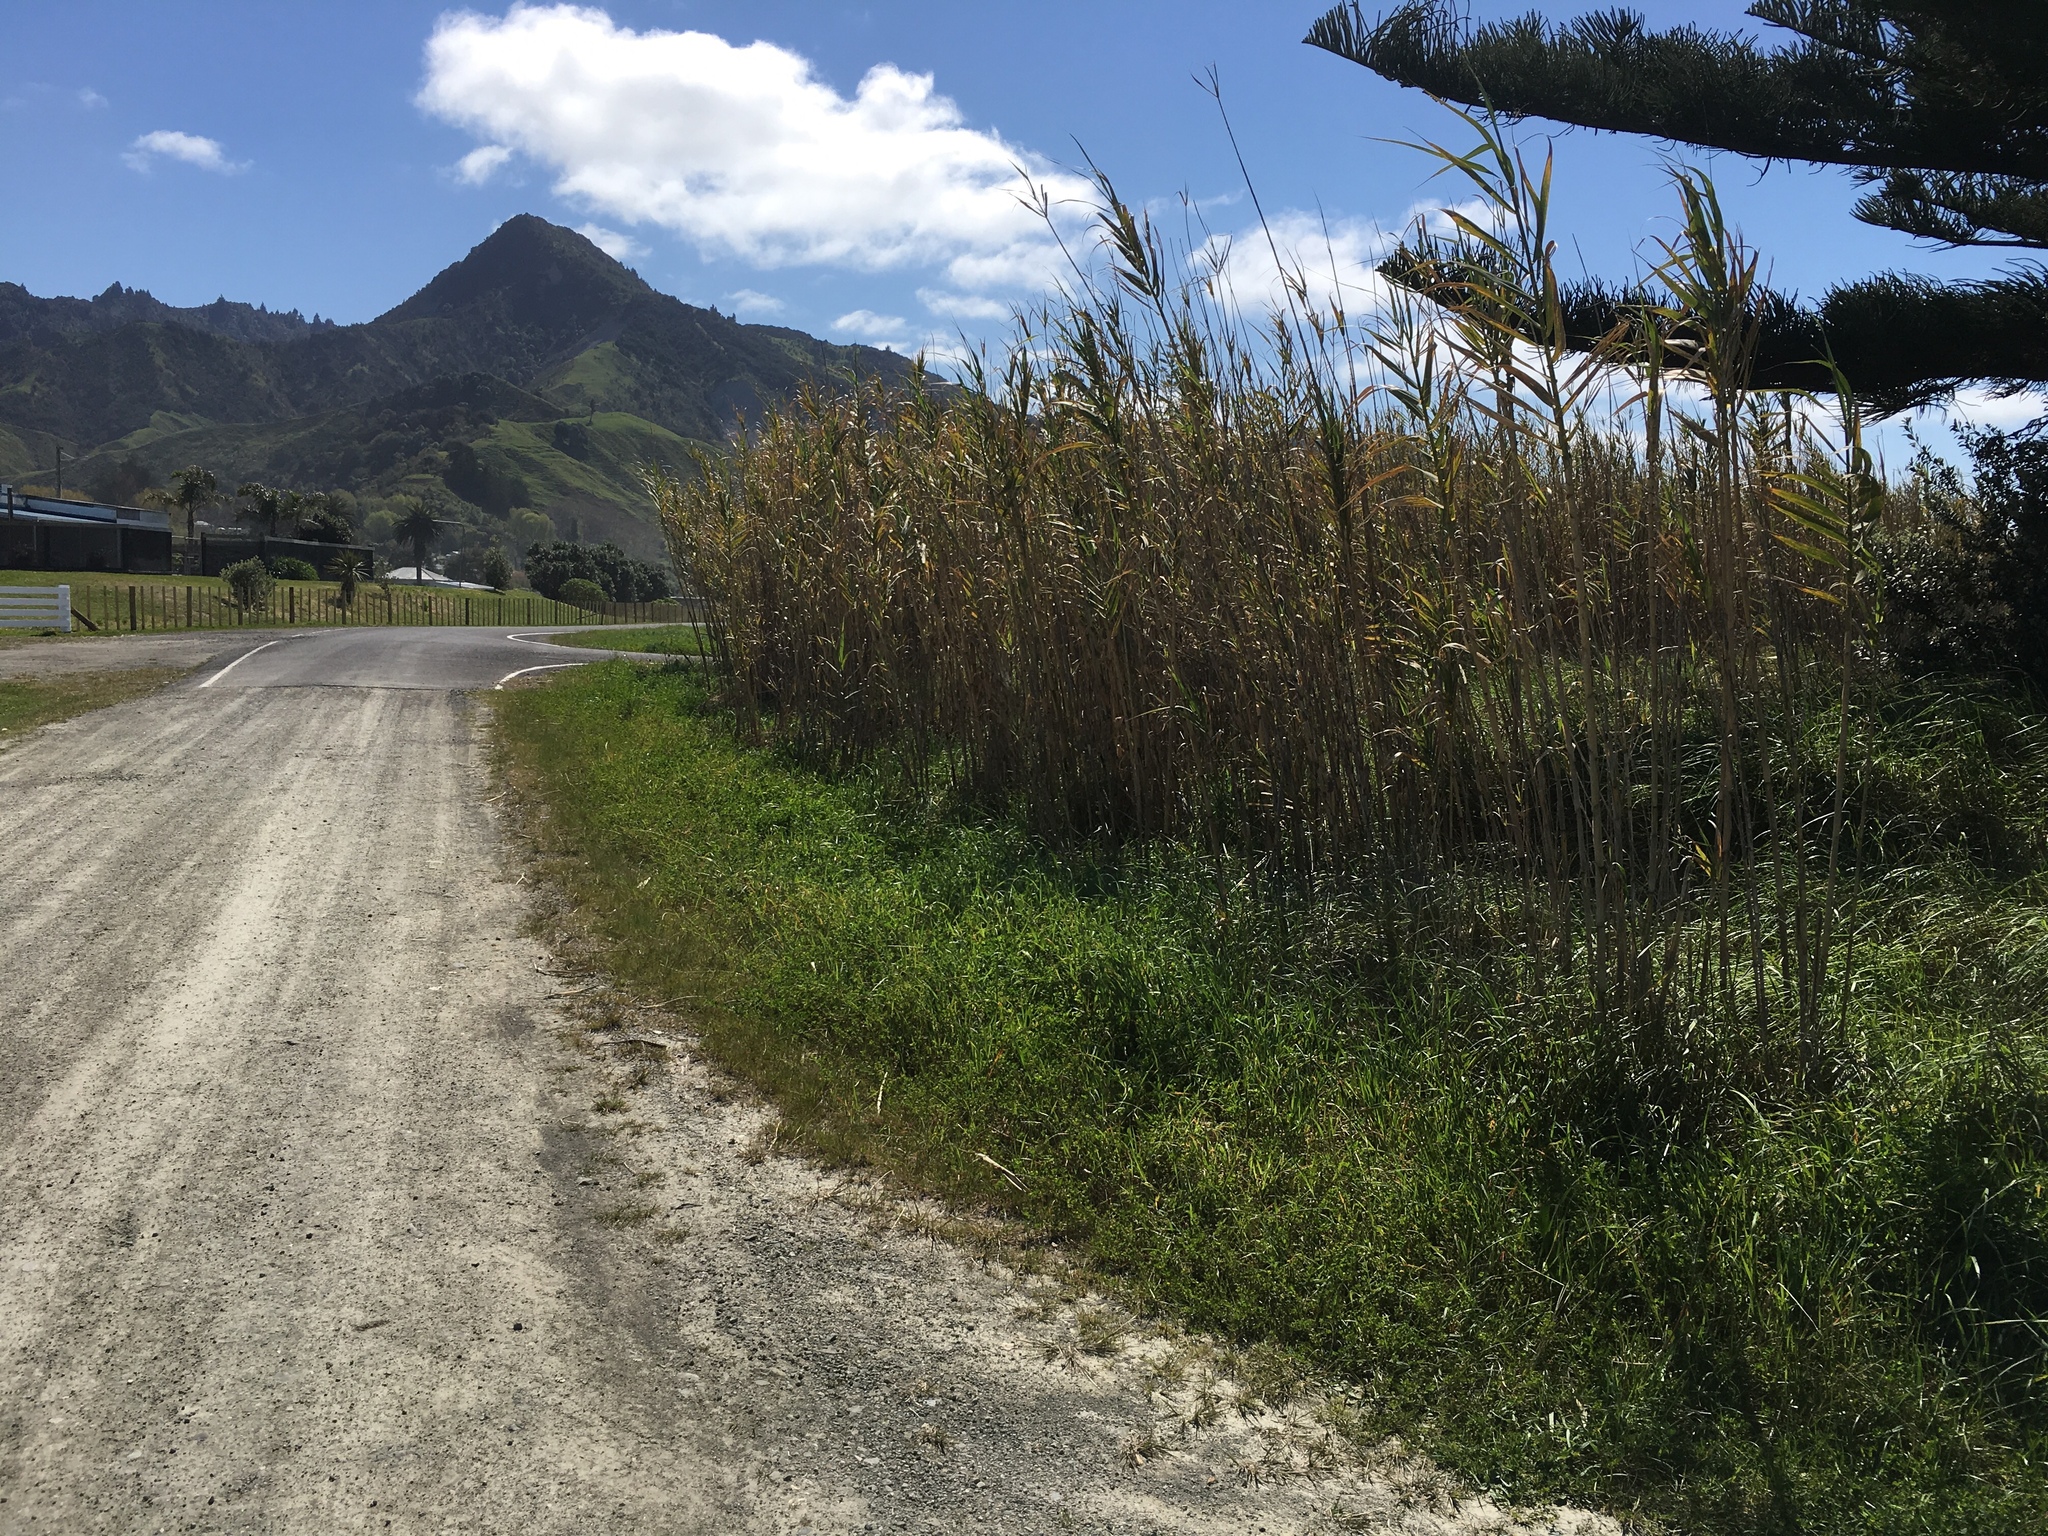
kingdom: Plantae
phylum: Tracheophyta
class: Liliopsida
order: Poales
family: Poaceae
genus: Arundo
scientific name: Arundo donax
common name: Giant reed
